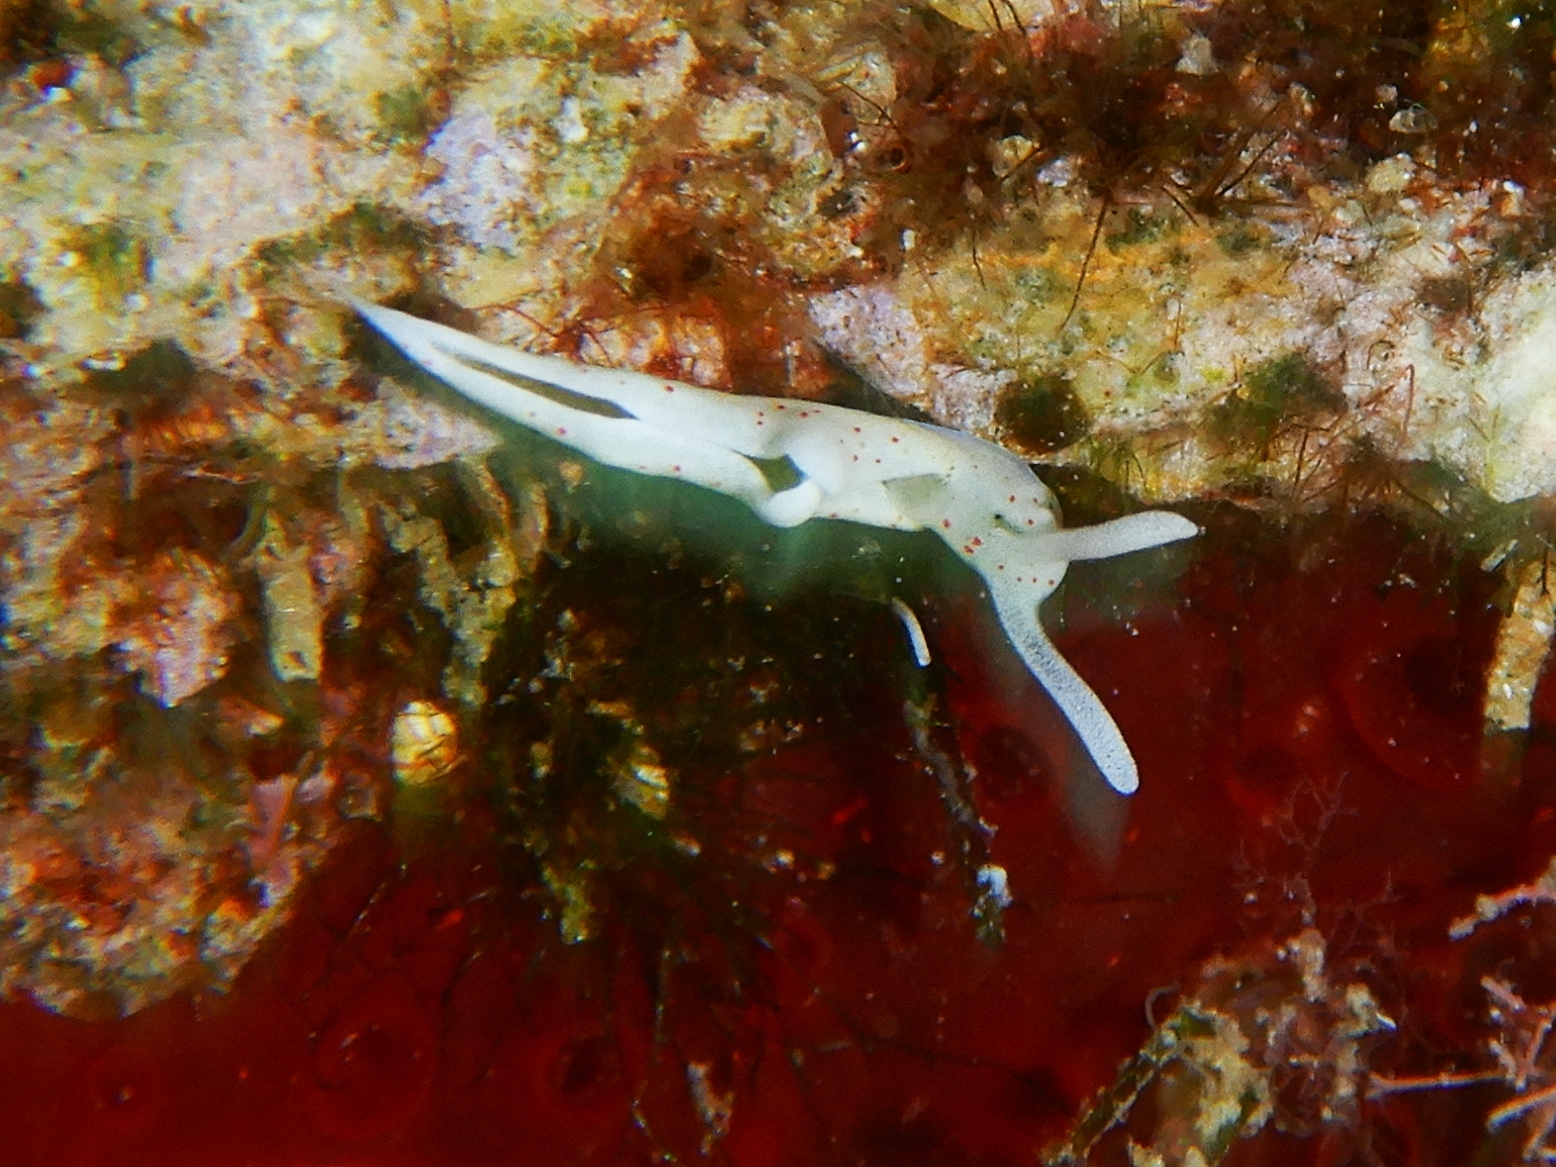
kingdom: Animalia
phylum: Mollusca
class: Gastropoda
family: Plakobranchidae
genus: Elysia
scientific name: Elysia timida
